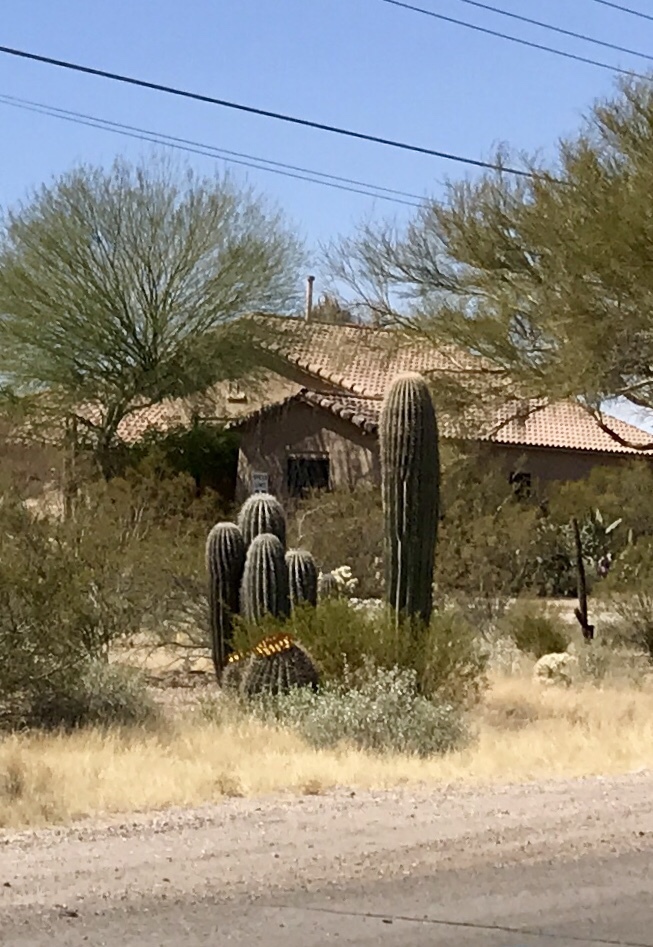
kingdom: Plantae
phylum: Tracheophyta
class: Magnoliopsida
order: Caryophyllales
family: Cactaceae
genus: Carnegiea
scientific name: Carnegiea gigantea
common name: Saguaro
